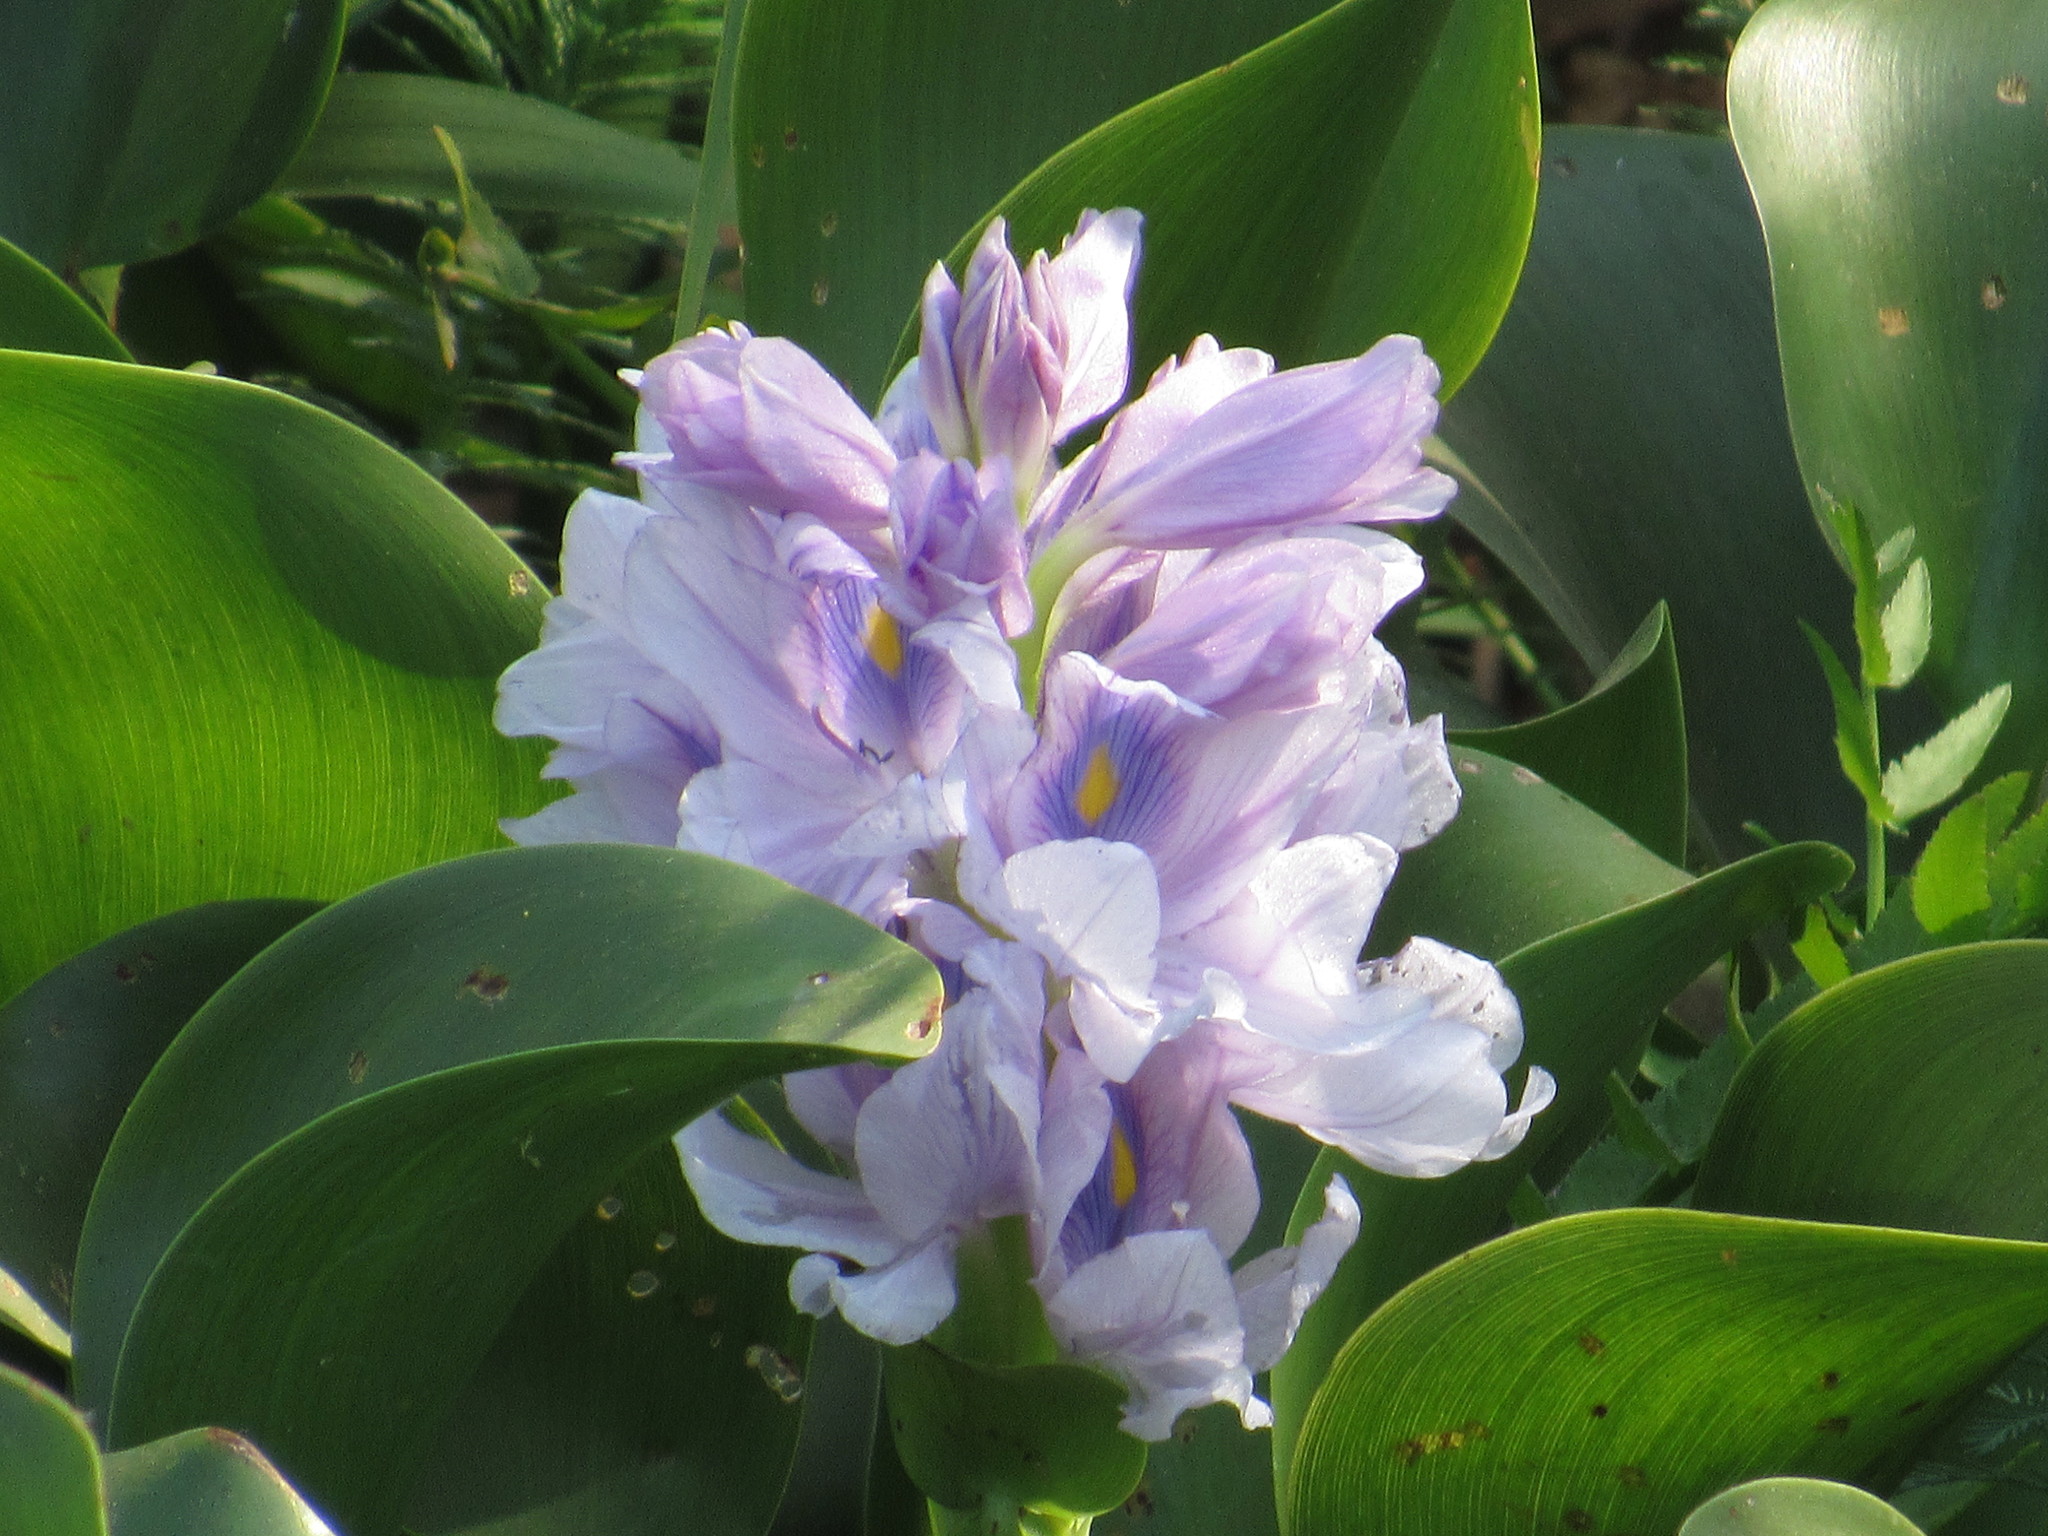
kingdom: Plantae
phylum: Tracheophyta
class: Liliopsida
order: Commelinales
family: Pontederiaceae
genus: Pontederia
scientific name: Pontederia crassipes
